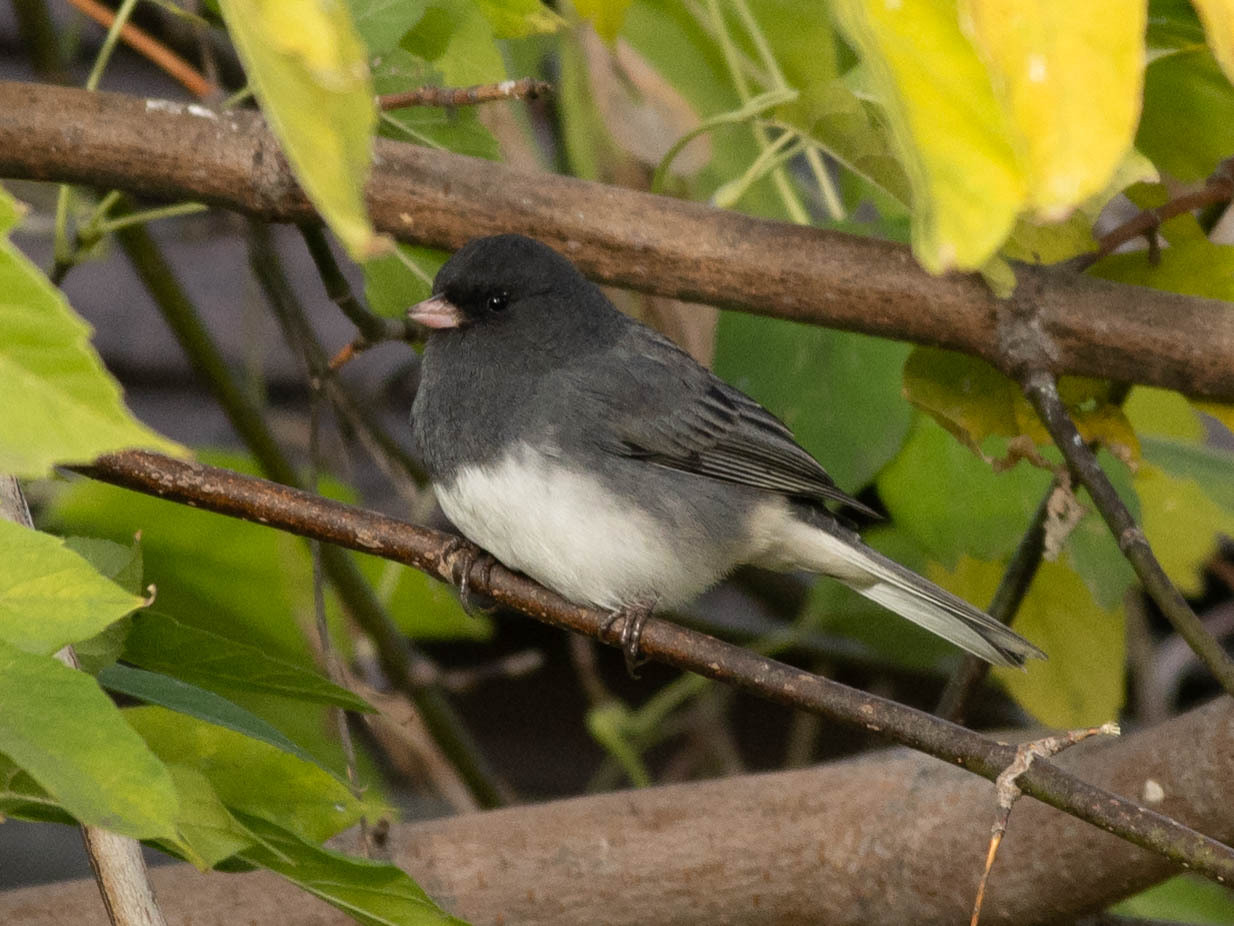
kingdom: Animalia
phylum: Chordata
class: Aves
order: Passeriformes
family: Passerellidae
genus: Junco
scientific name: Junco hyemalis
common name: Dark-eyed junco
